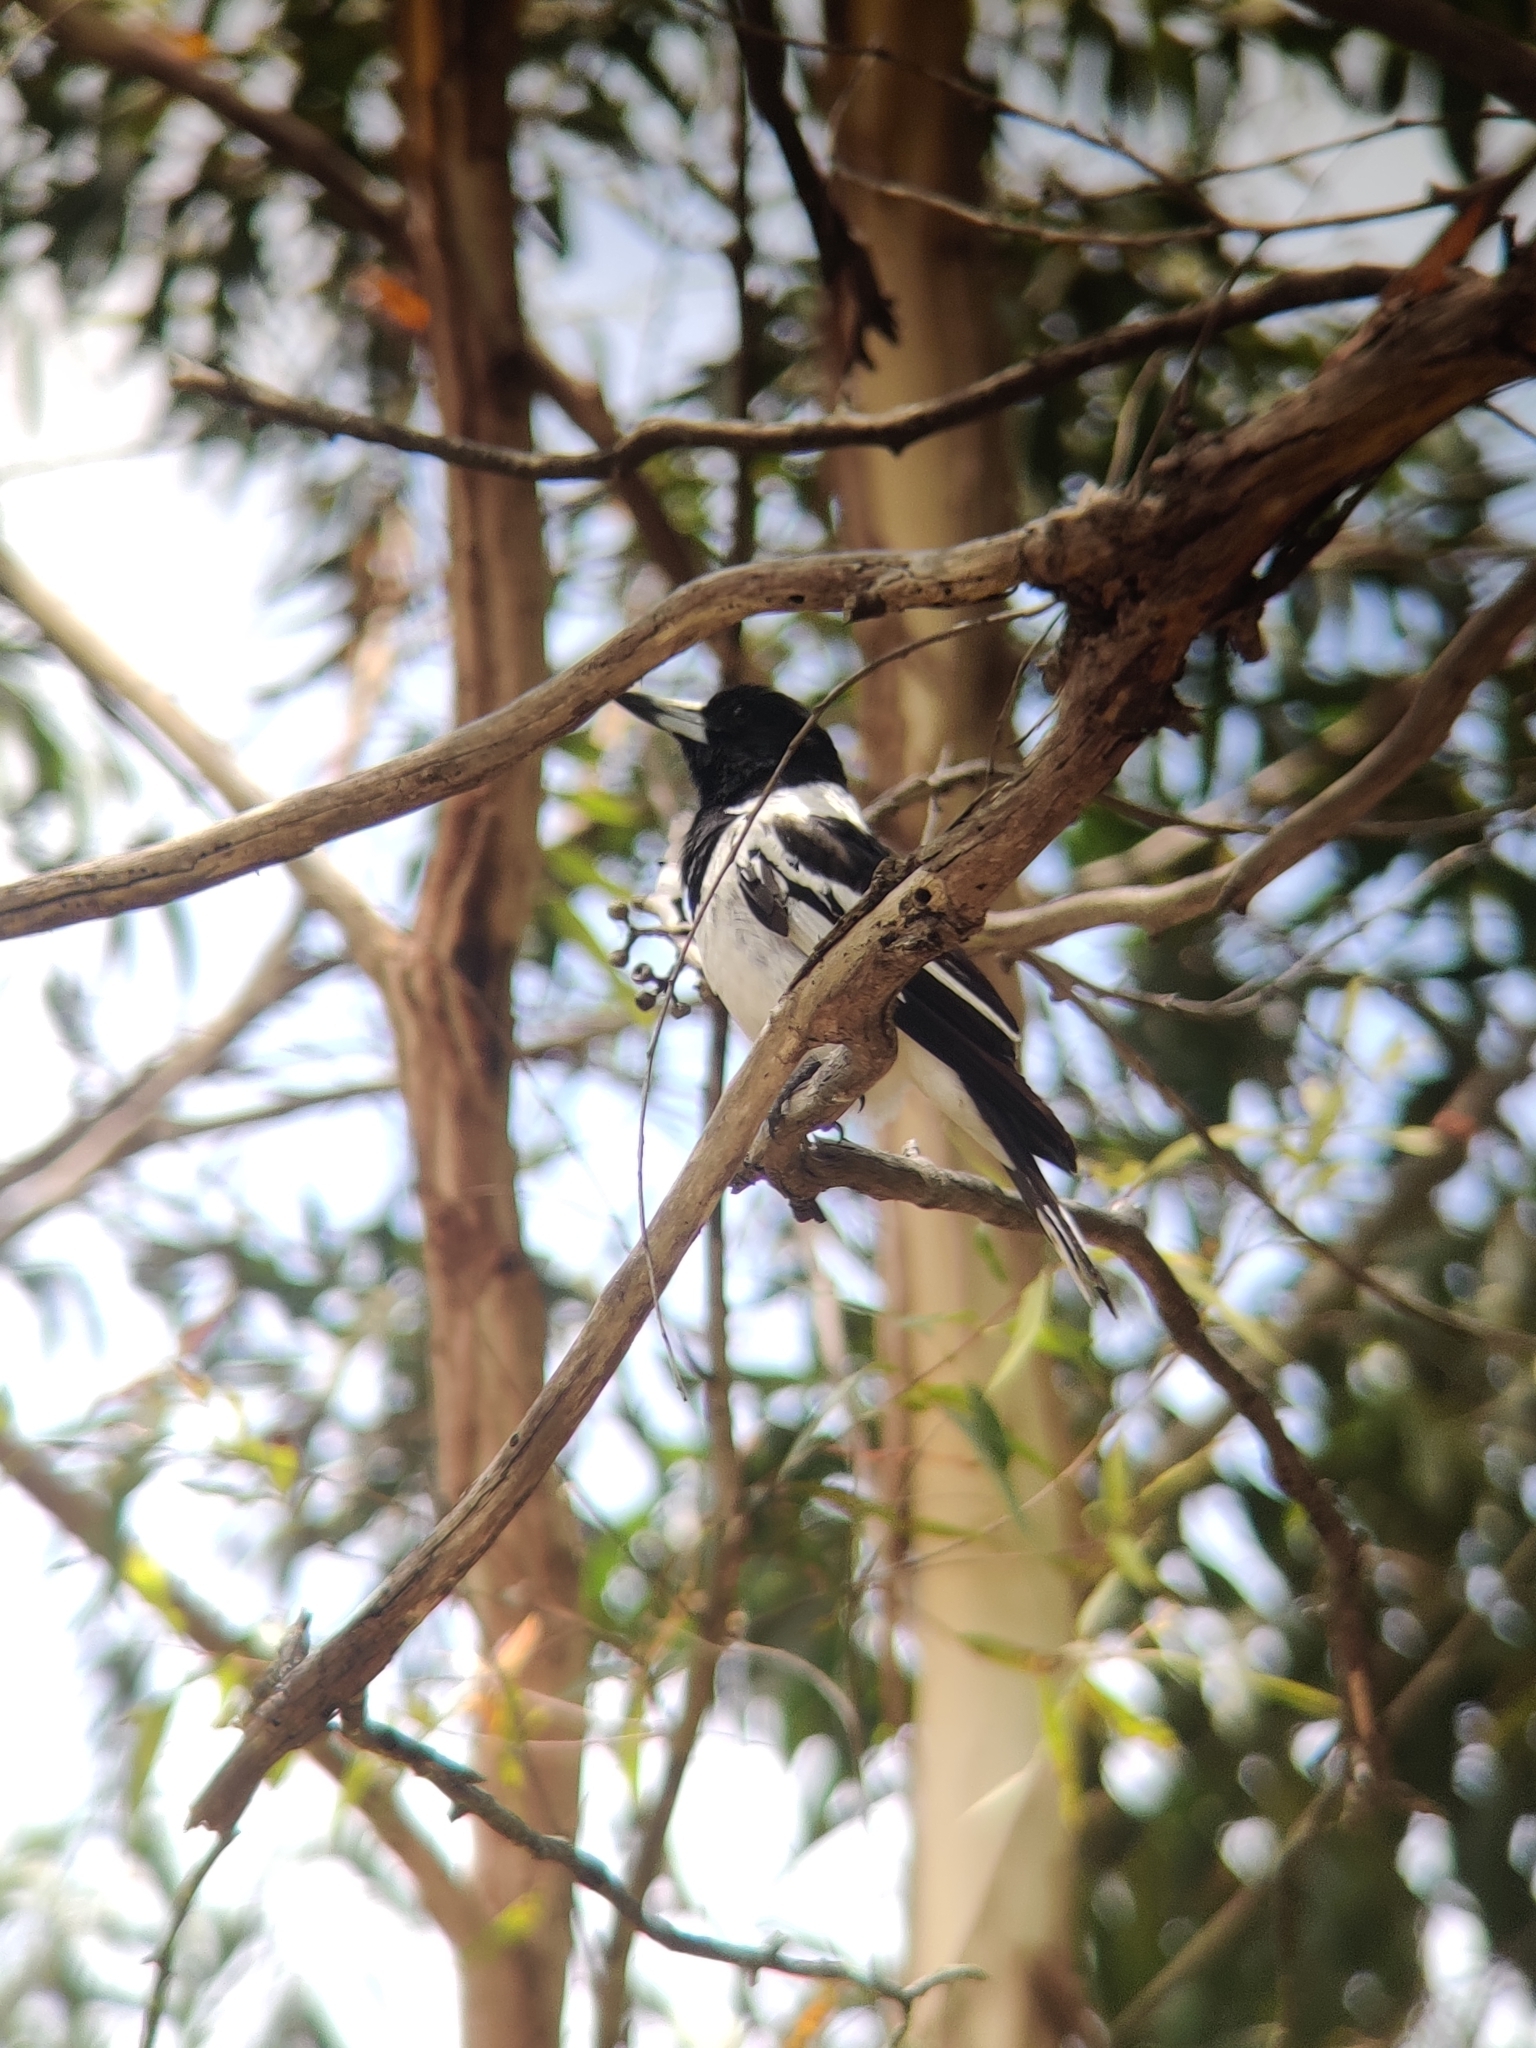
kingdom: Animalia
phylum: Chordata
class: Aves
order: Passeriformes
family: Cracticidae
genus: Cracticus
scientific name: Cracticus nigrogularis
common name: Pied butcherbird
